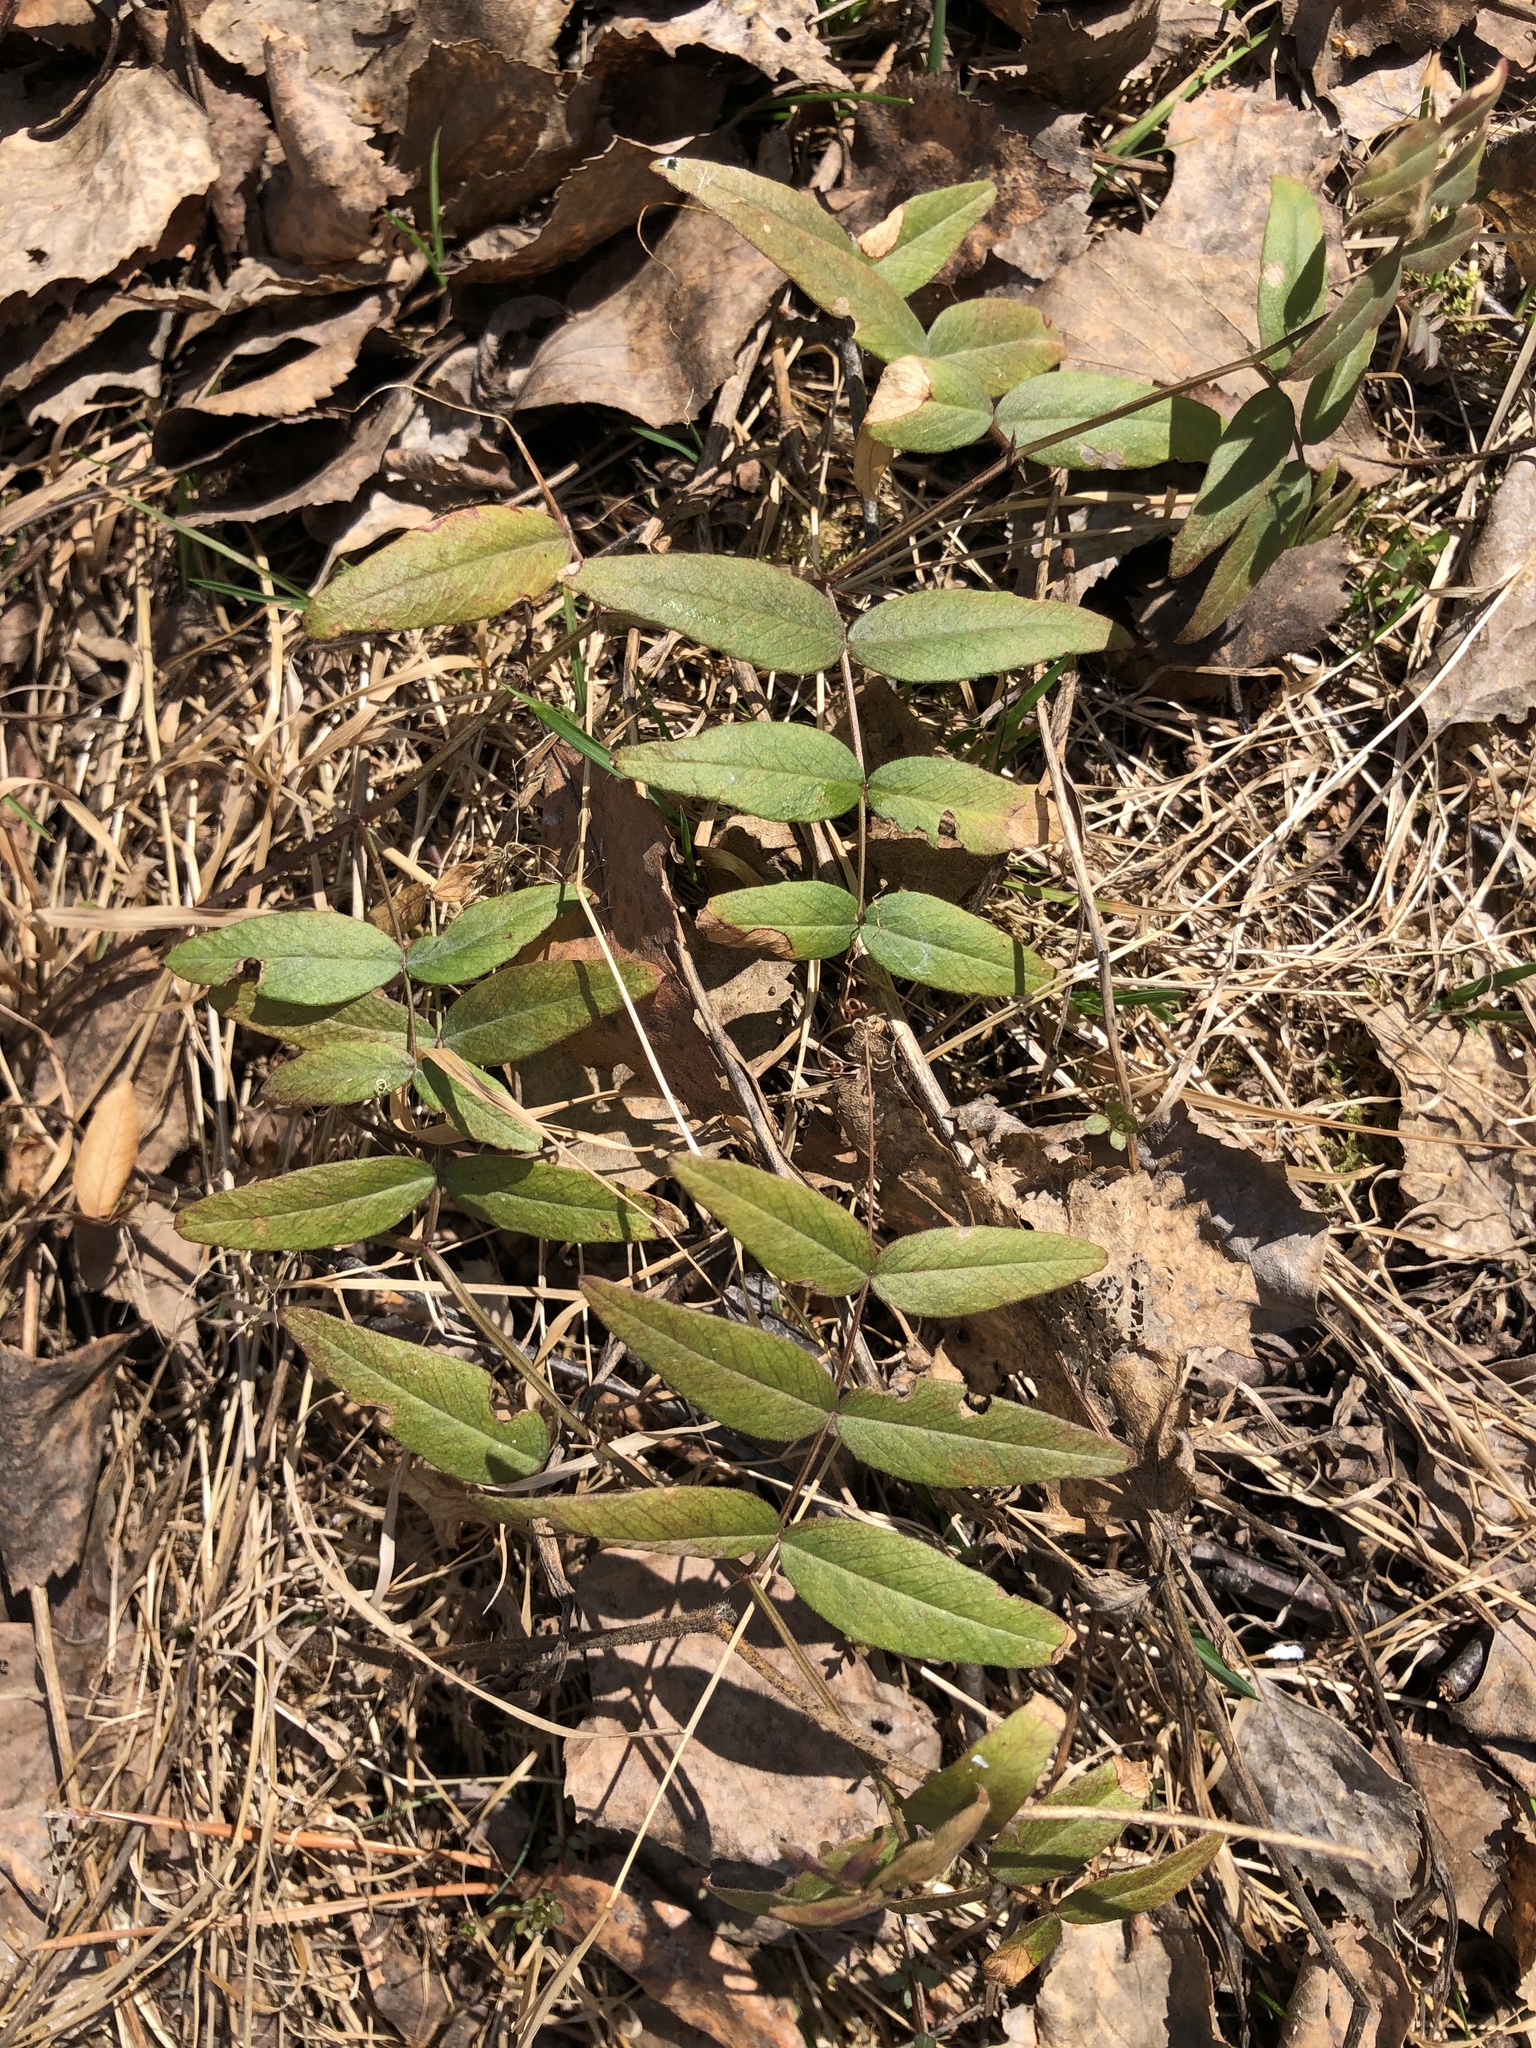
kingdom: Plantae
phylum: Tracheophyta
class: Magnoliopsida
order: Fabales
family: Fabaceae
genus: Vicia
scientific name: Vicia sepium
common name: Bush vetch
